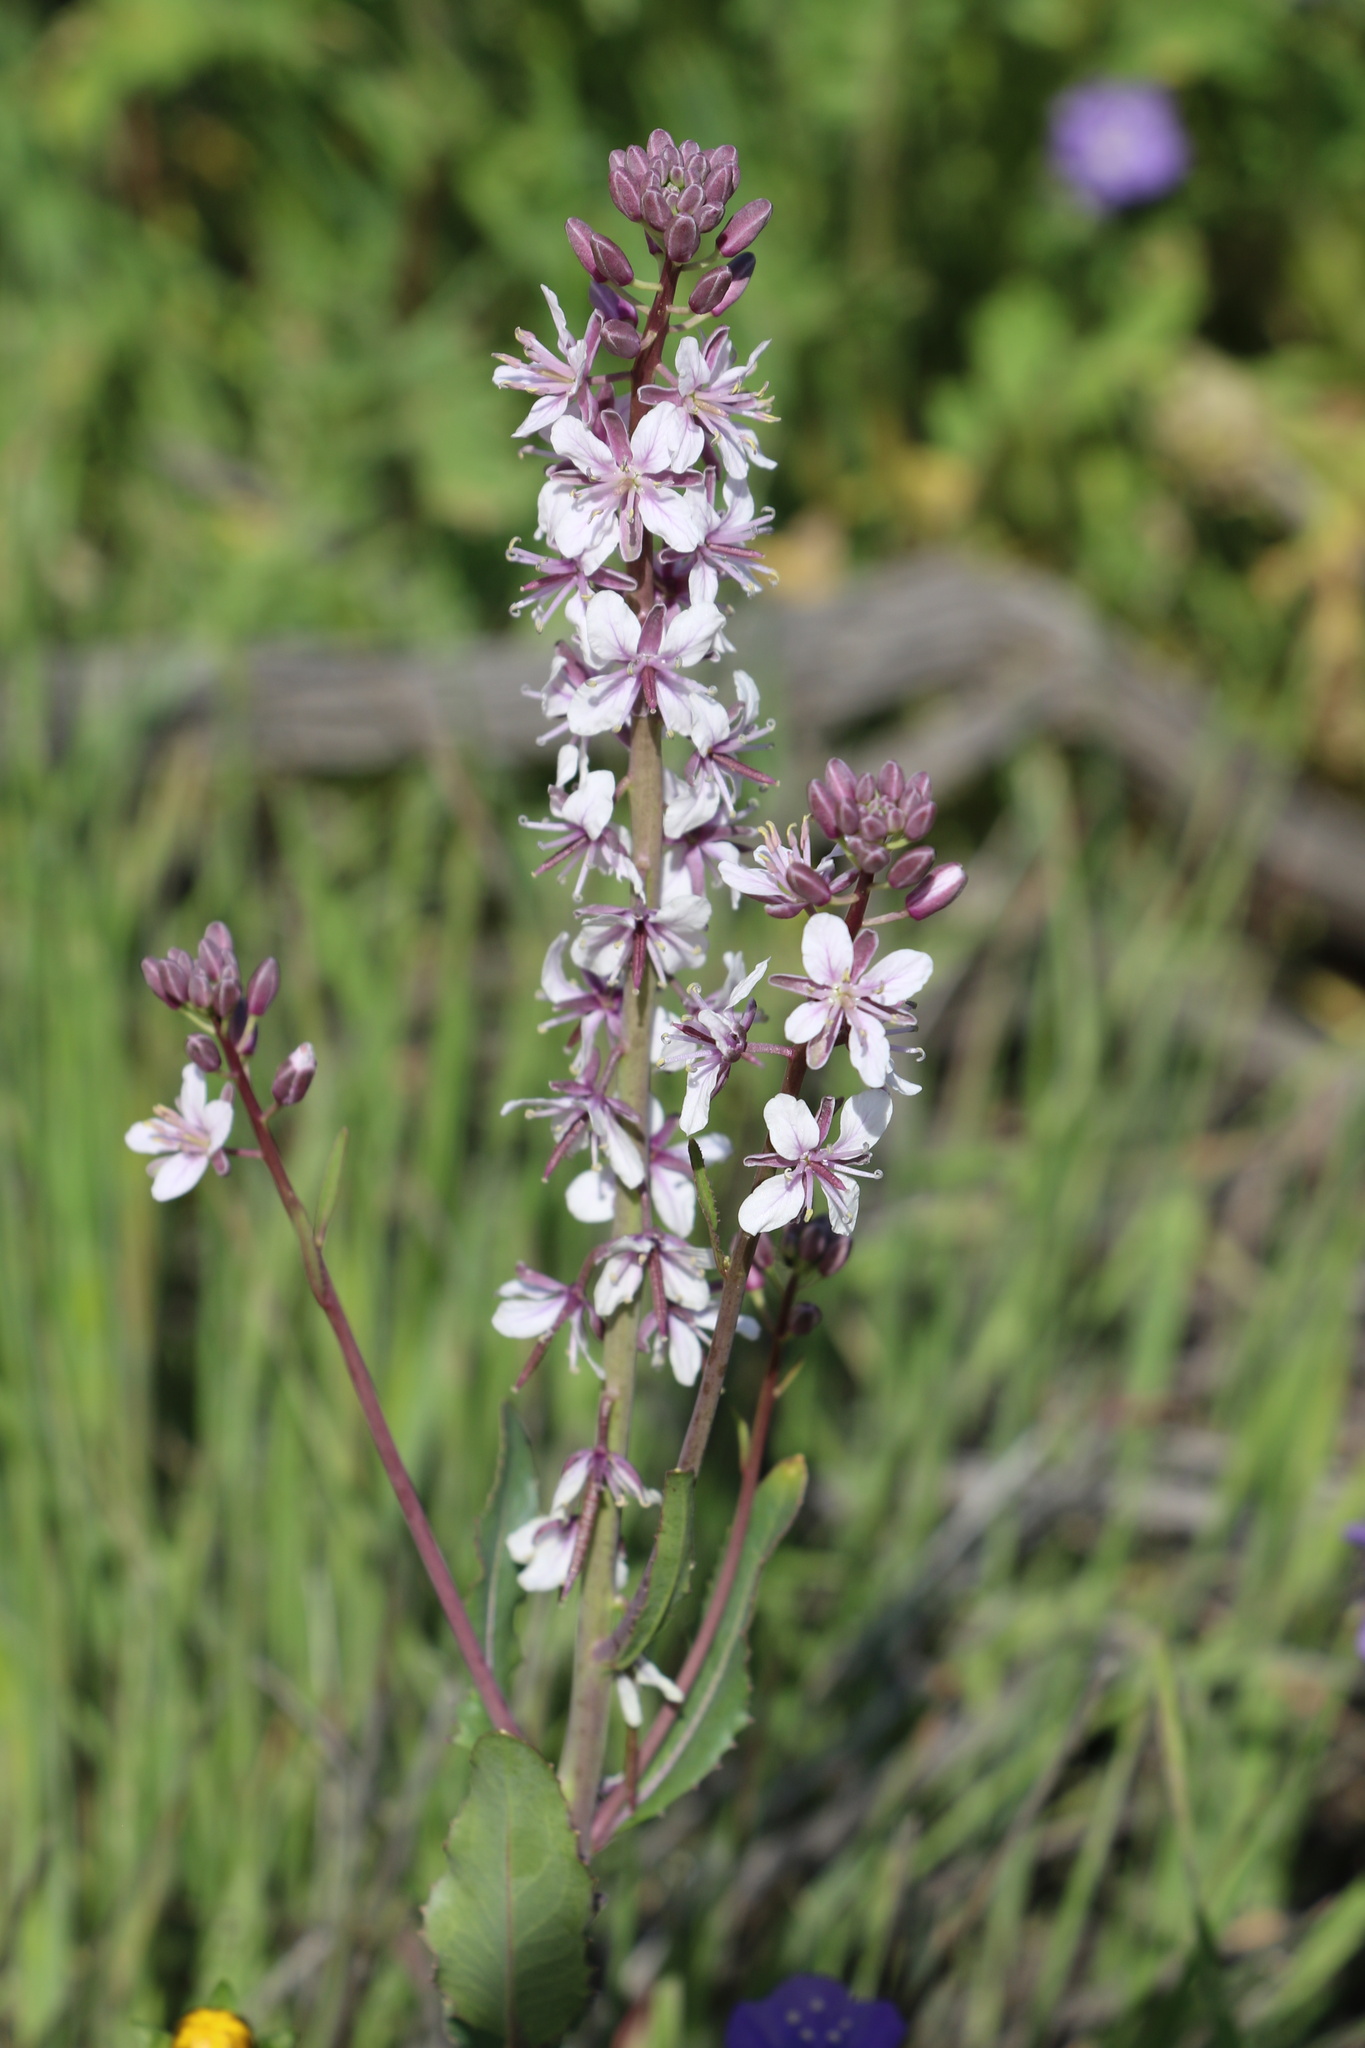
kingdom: Plantae
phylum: Tracheophyta
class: Magnoliopsida
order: Brassicales
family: Brassicaceae
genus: Streptanthus
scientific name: Streptanthus anceps
